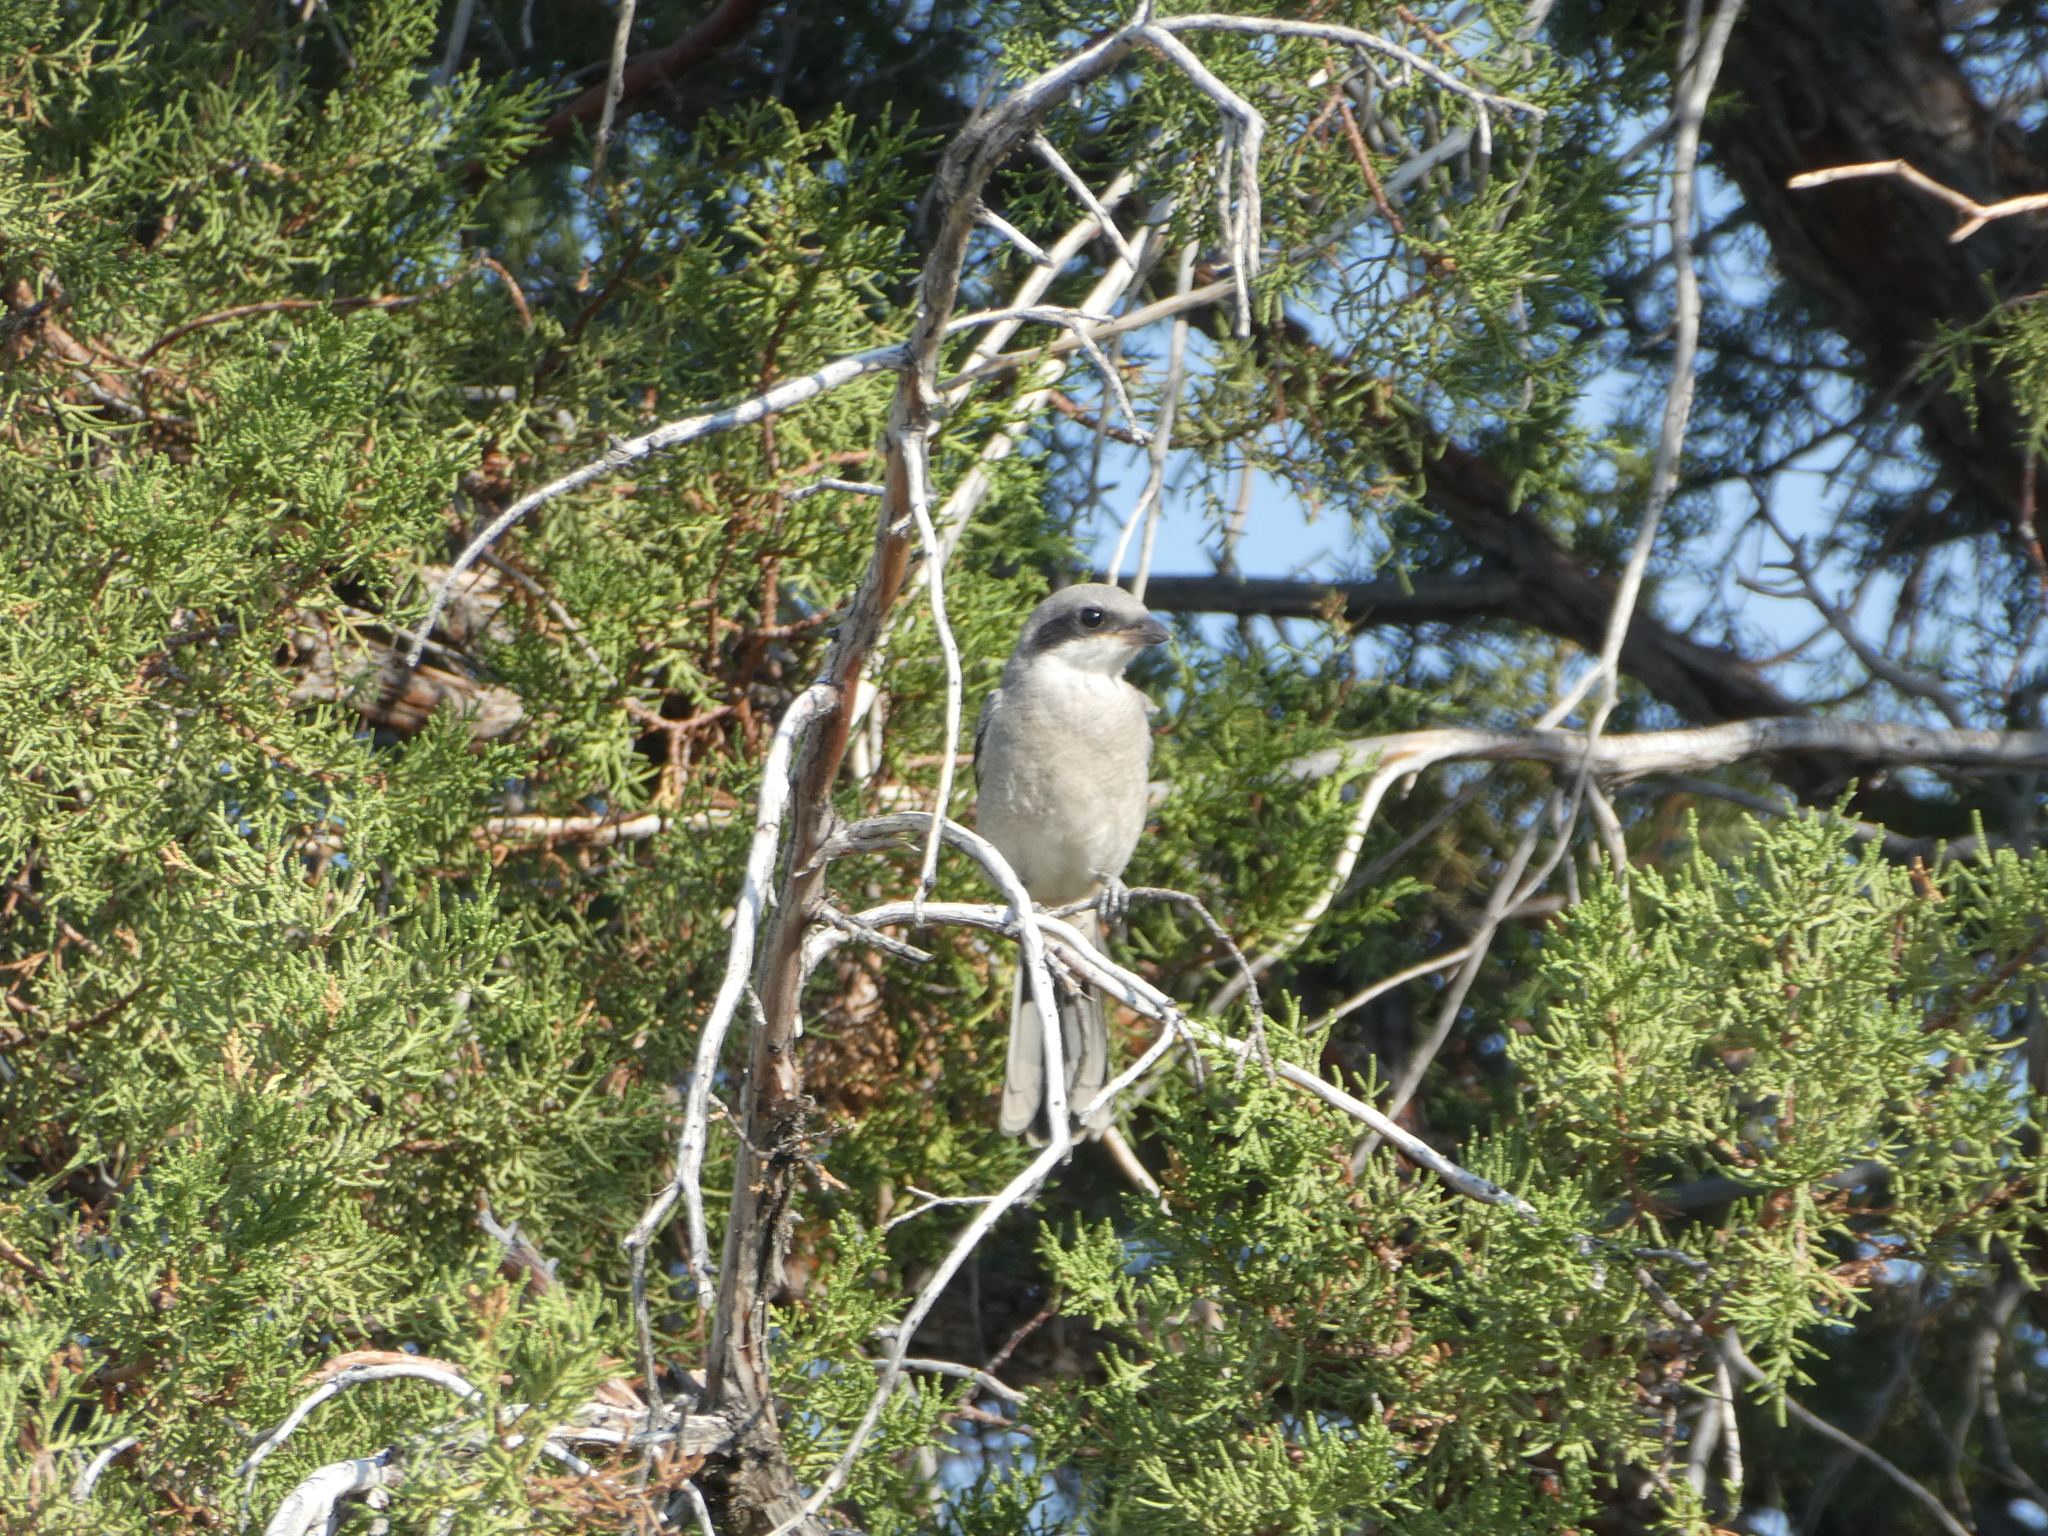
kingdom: Animalia
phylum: Chordata
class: Aves
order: Passeriformes
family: Laniidae
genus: Lanius
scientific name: Lanius ludovicianus
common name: Loggerhead shrike
